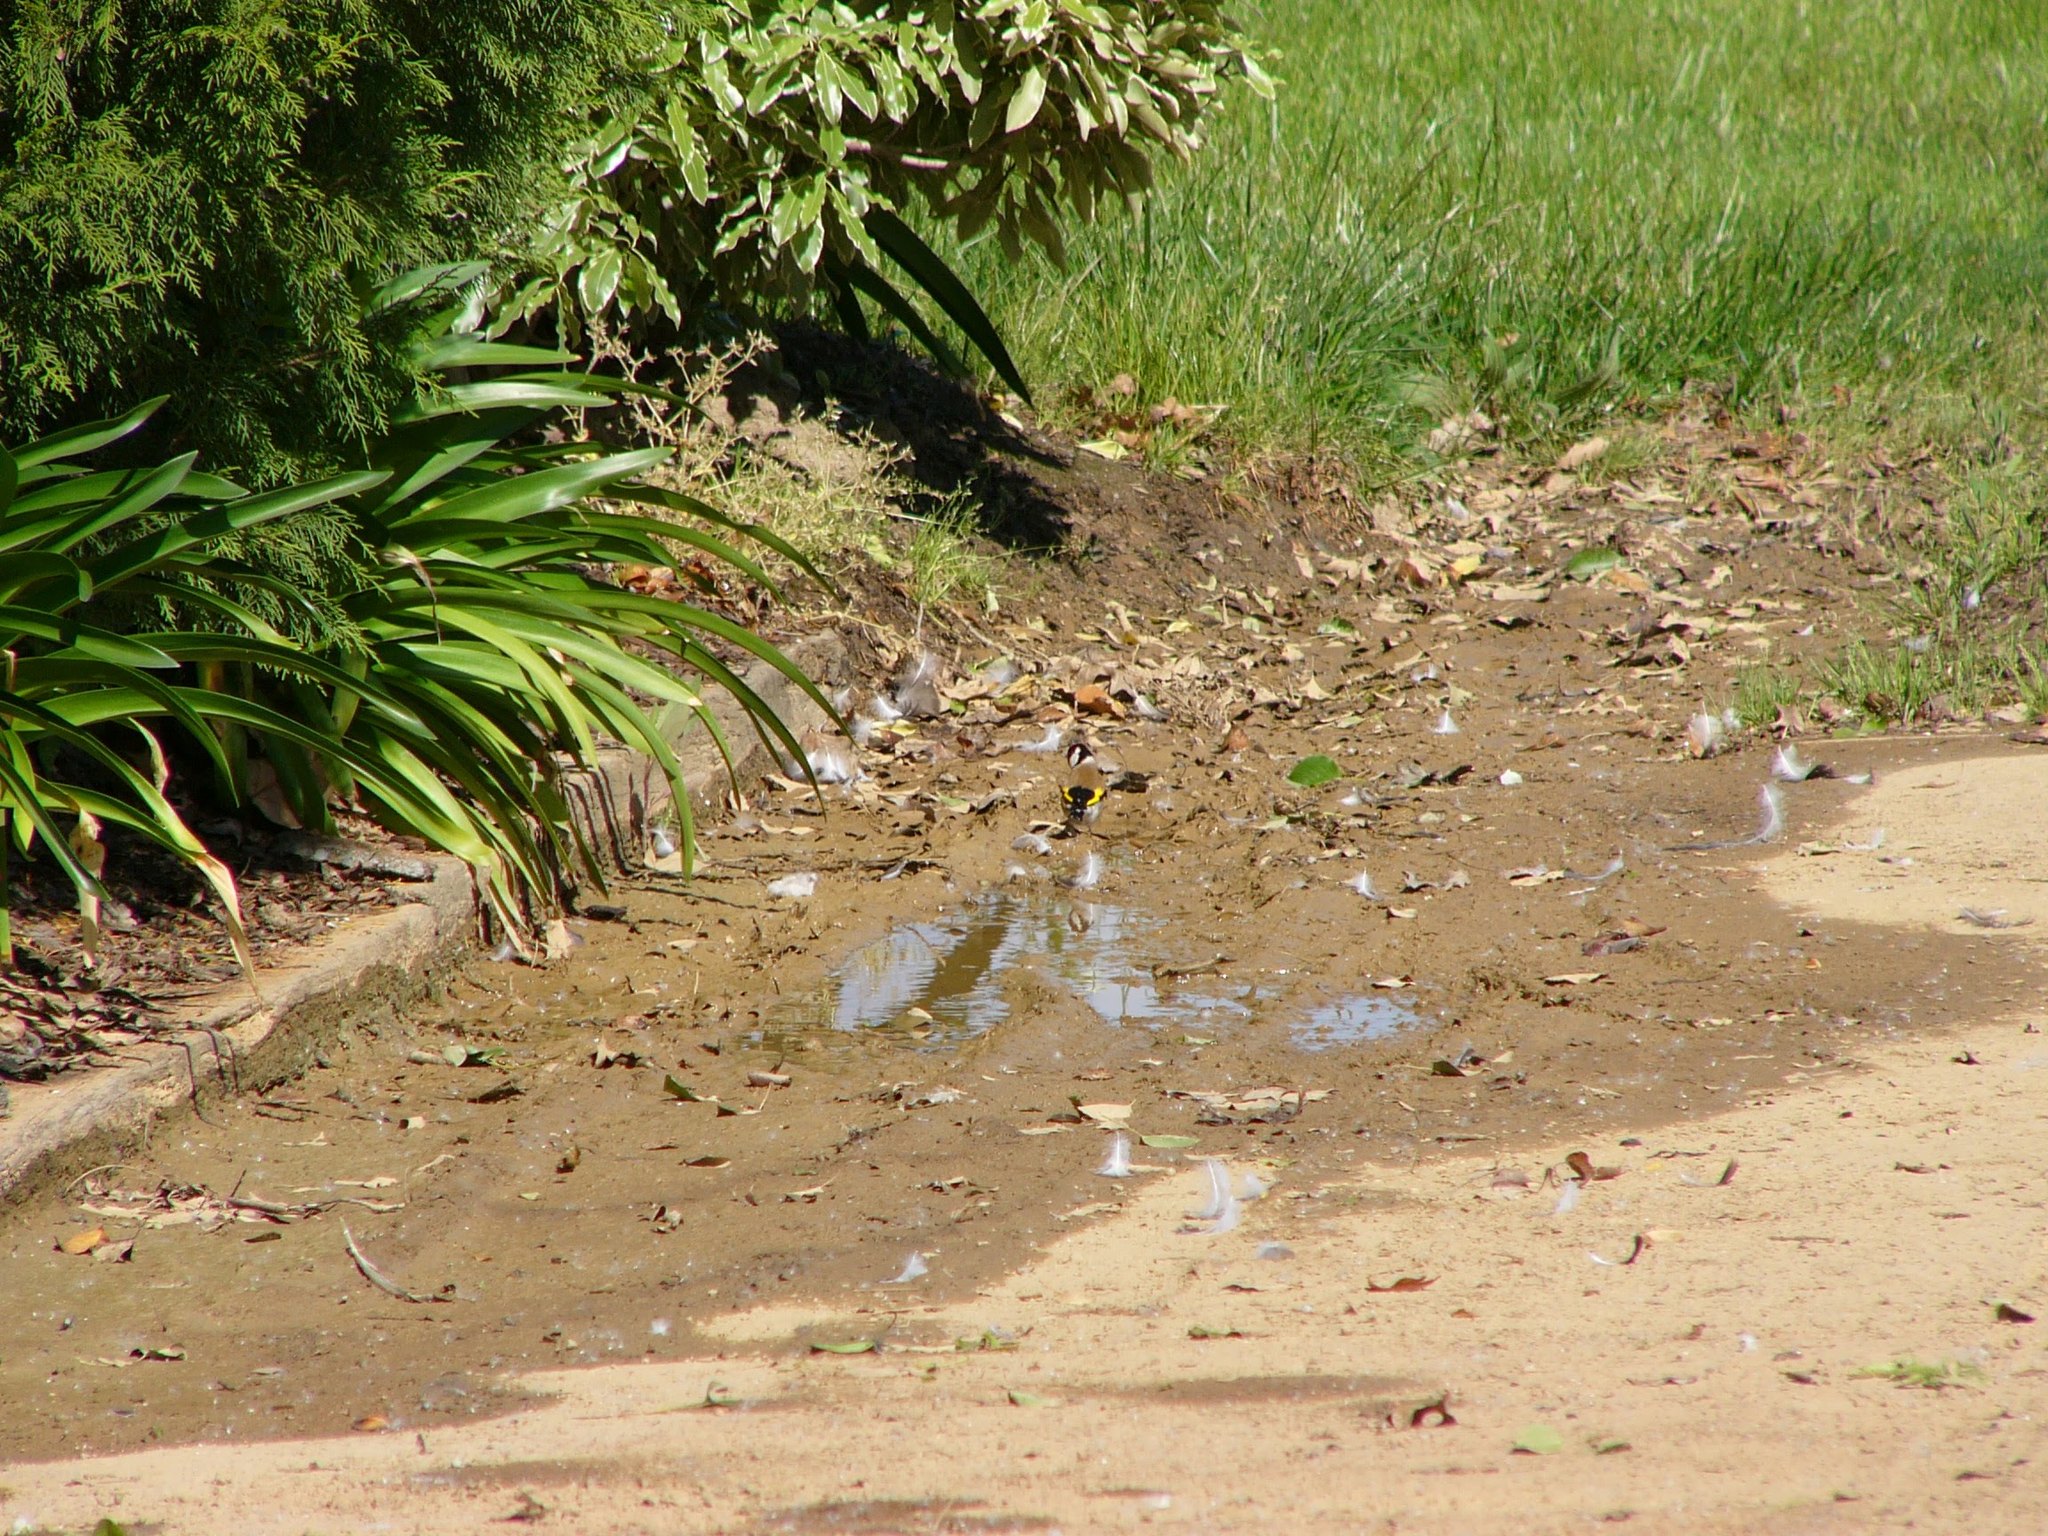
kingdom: Animalia
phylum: Chordata
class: Aves
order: Passeriformes
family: Fringillidae
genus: Carduelis
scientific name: Carduelis carduelis
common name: European goldfinch
